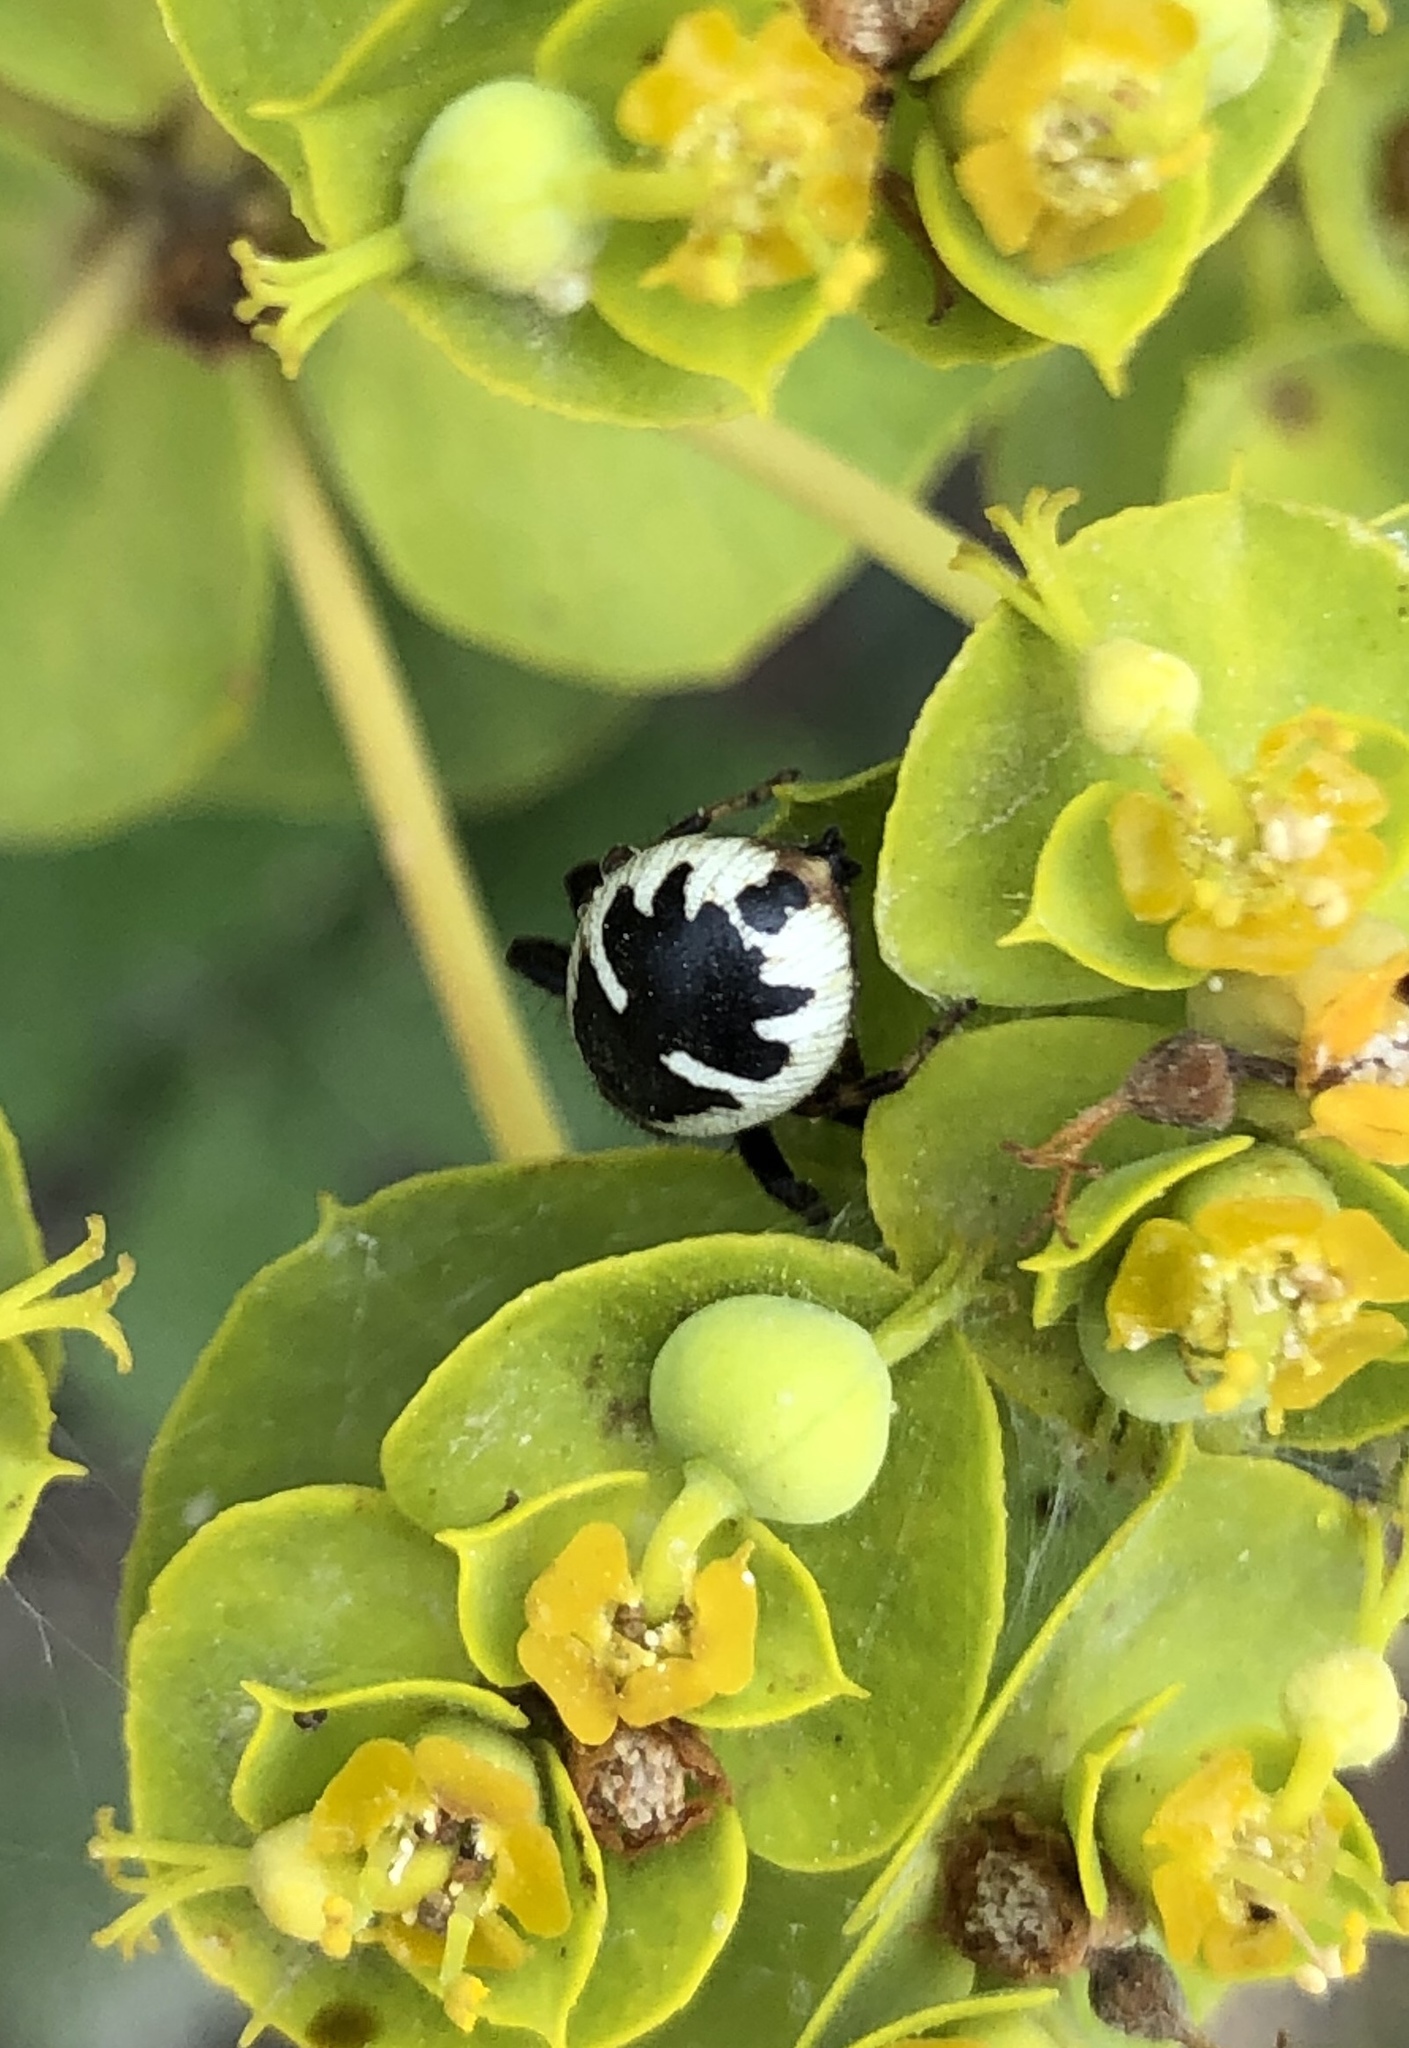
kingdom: Animalia
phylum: Arthropoda
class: Arachnida
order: Araneae
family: Thomisidae
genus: Synema
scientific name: Synema globosum
